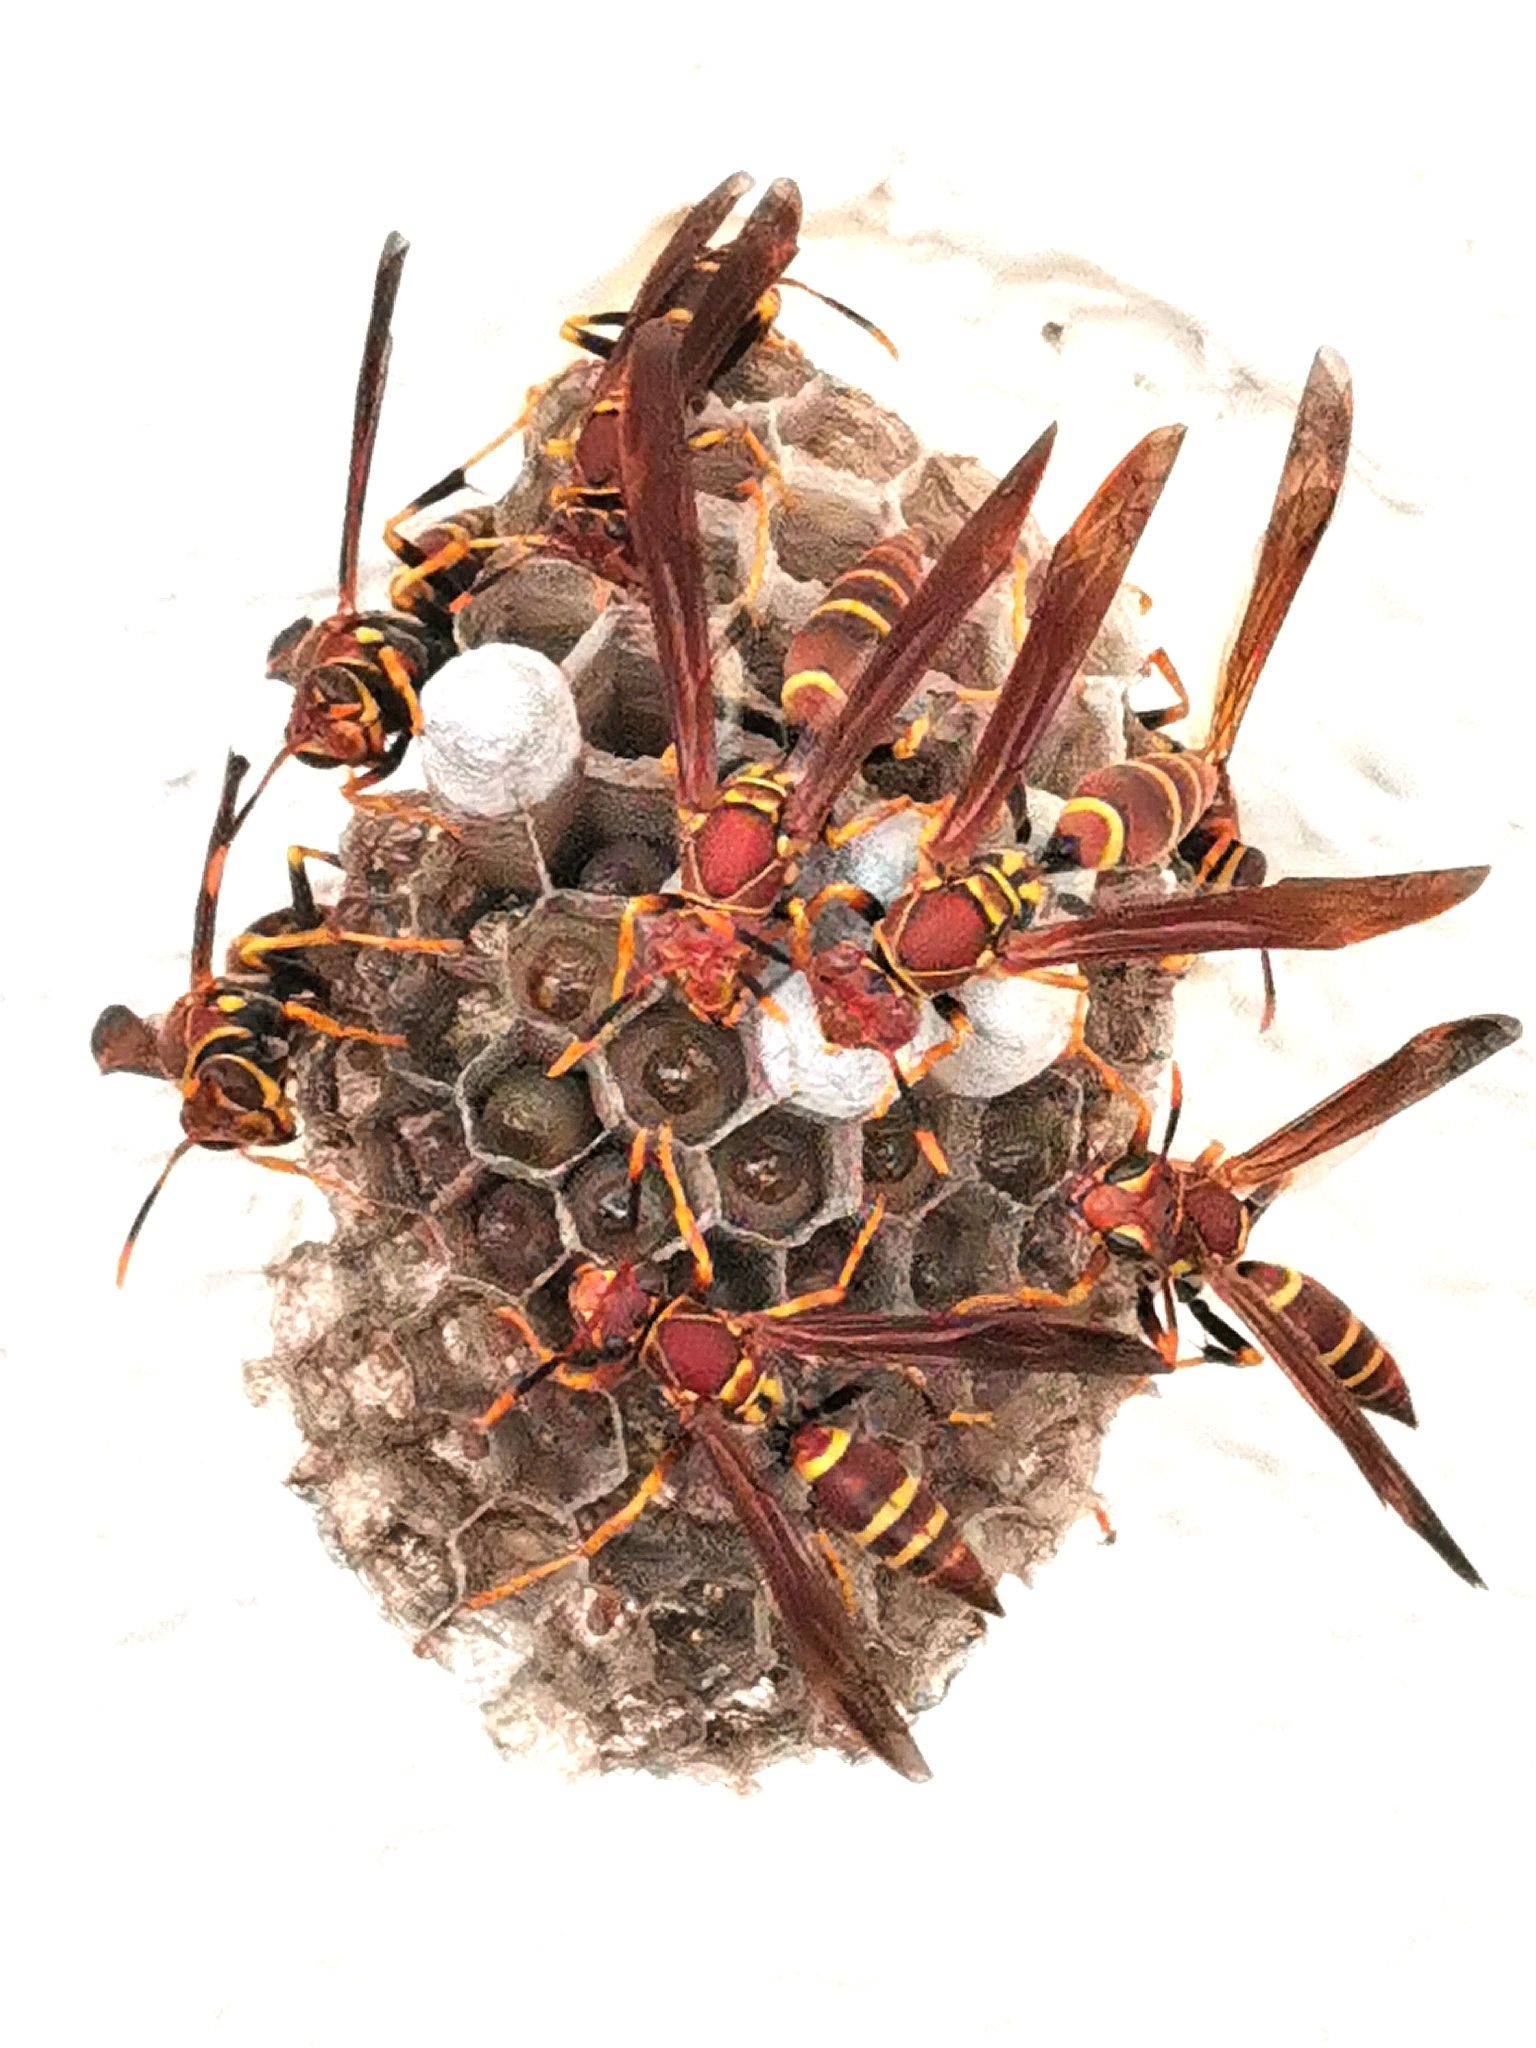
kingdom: Animalia
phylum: Arthropoda
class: Insecta
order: Hymenoptera
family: Eumenidae
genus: Polistes
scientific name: Polistes instabilis
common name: Unstable paper wasp
